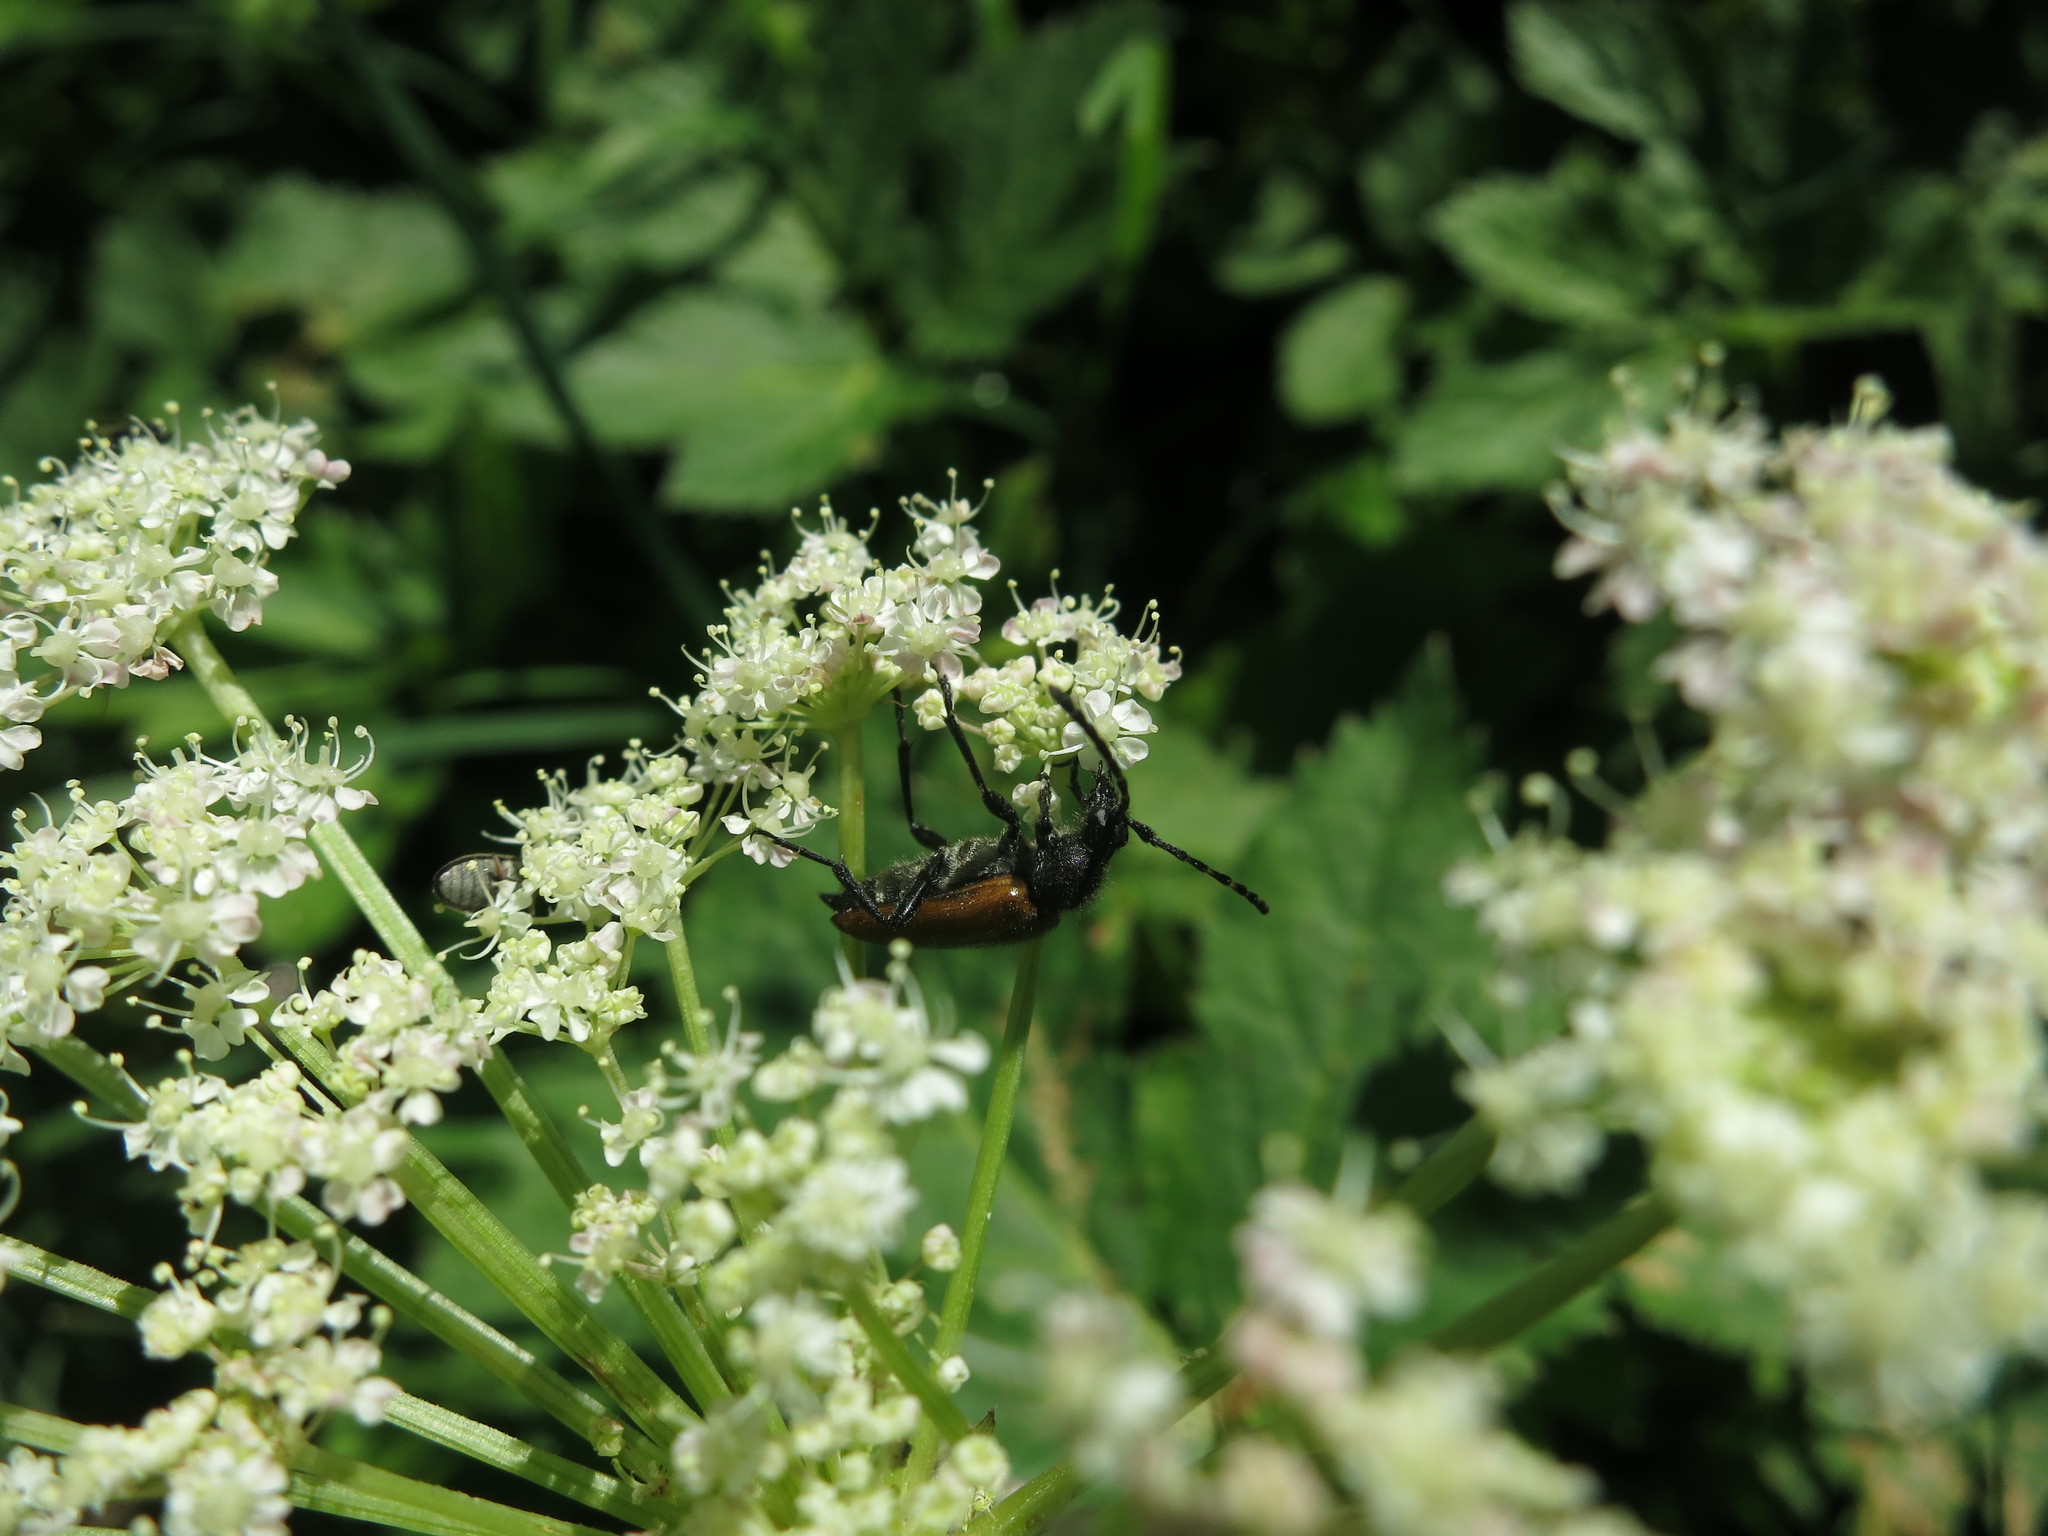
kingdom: Animalia
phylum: Arthropoda
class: Insecta
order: Coleoptera
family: Cerambycidae
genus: Paracorymbia
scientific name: Paracorymbia hybrida
